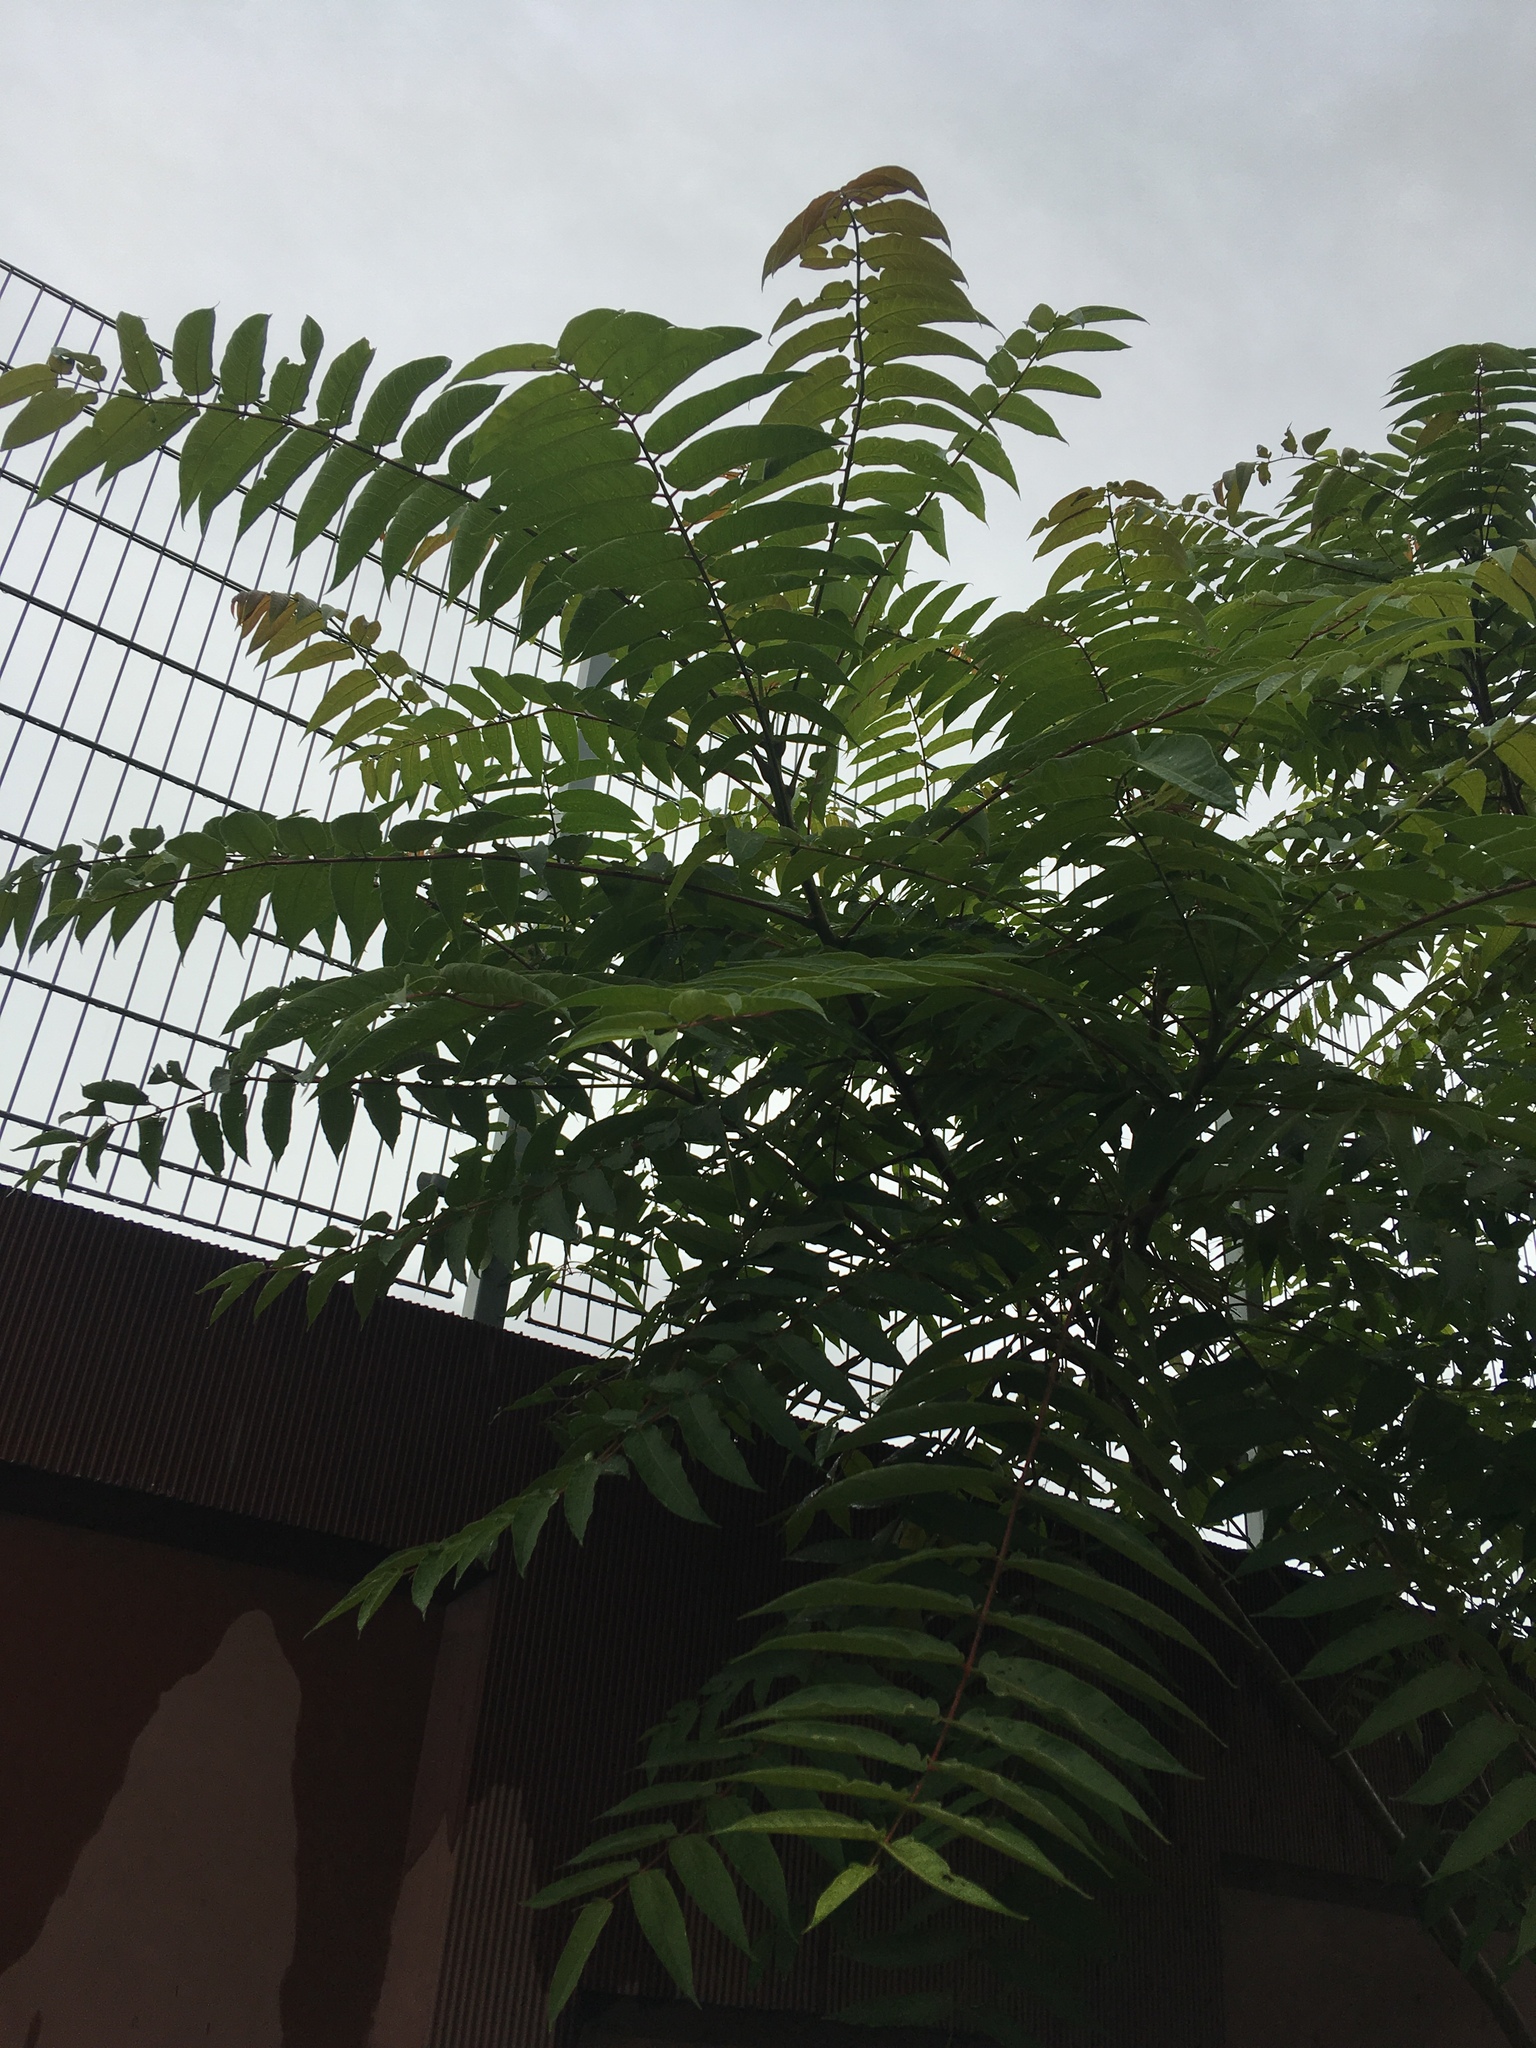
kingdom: Plantae
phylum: Tracheophyta
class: Magnoliopsida
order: Sapindales
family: Simaroubaceae
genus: Ailanthus
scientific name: Ailanthus altissima
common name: Tree-of-heaven
